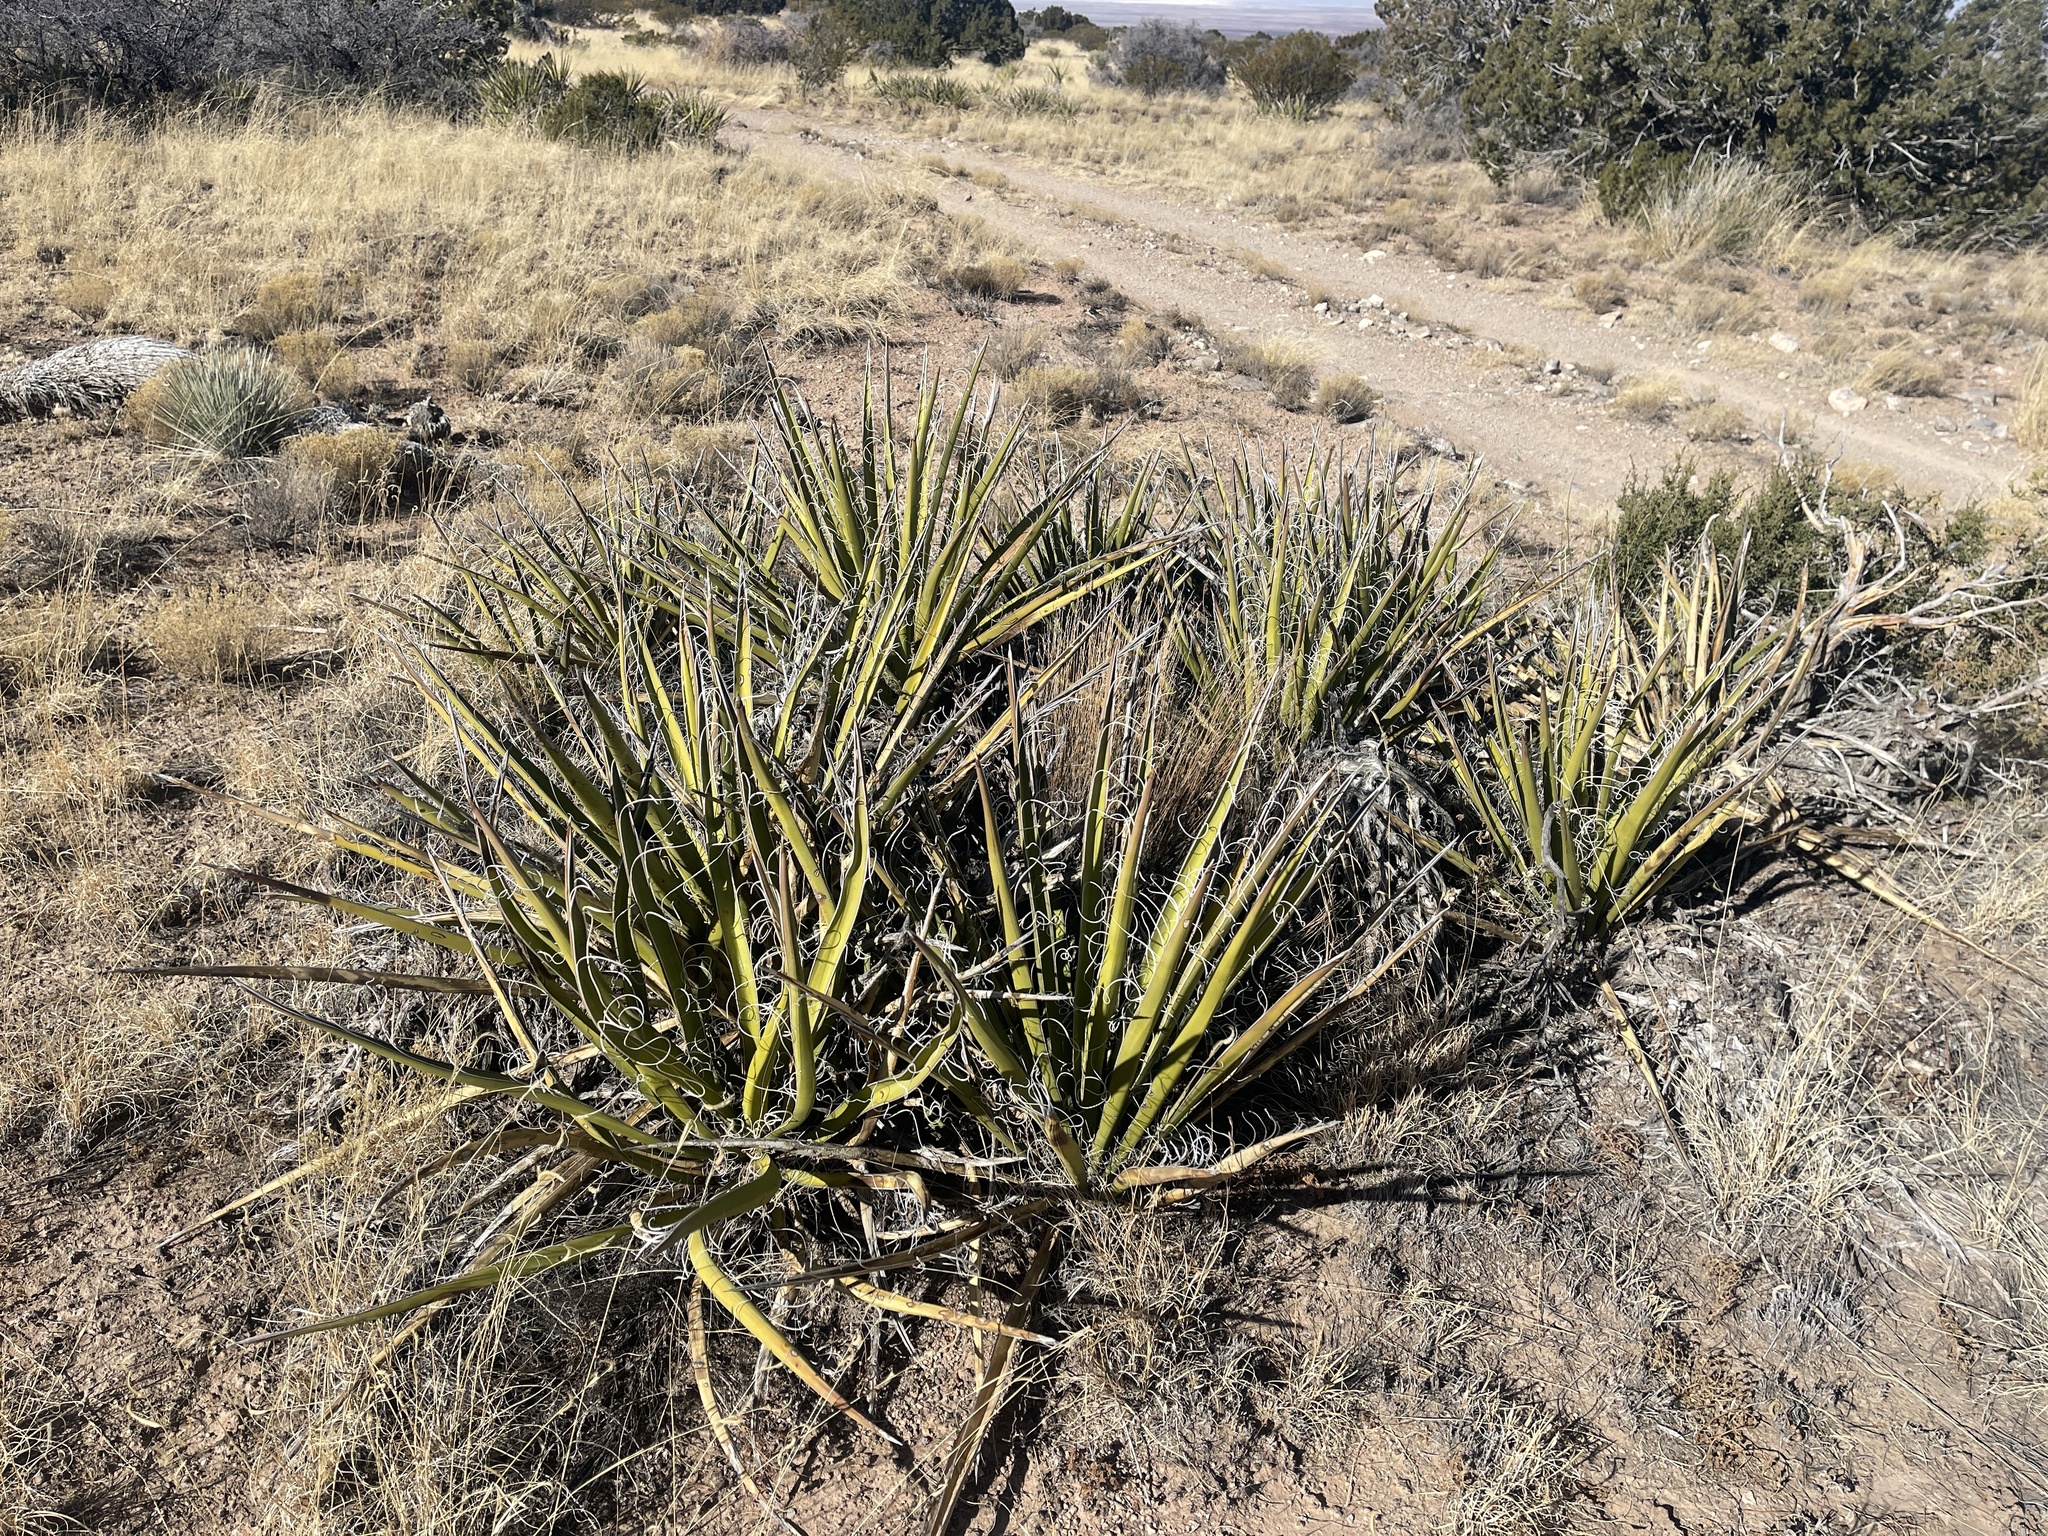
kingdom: Plantae
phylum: Tracheophyta
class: Liliopsida
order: Asparagales
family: Asparagaceae
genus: Yucca
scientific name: Yucca baccata
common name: Banana yucca
